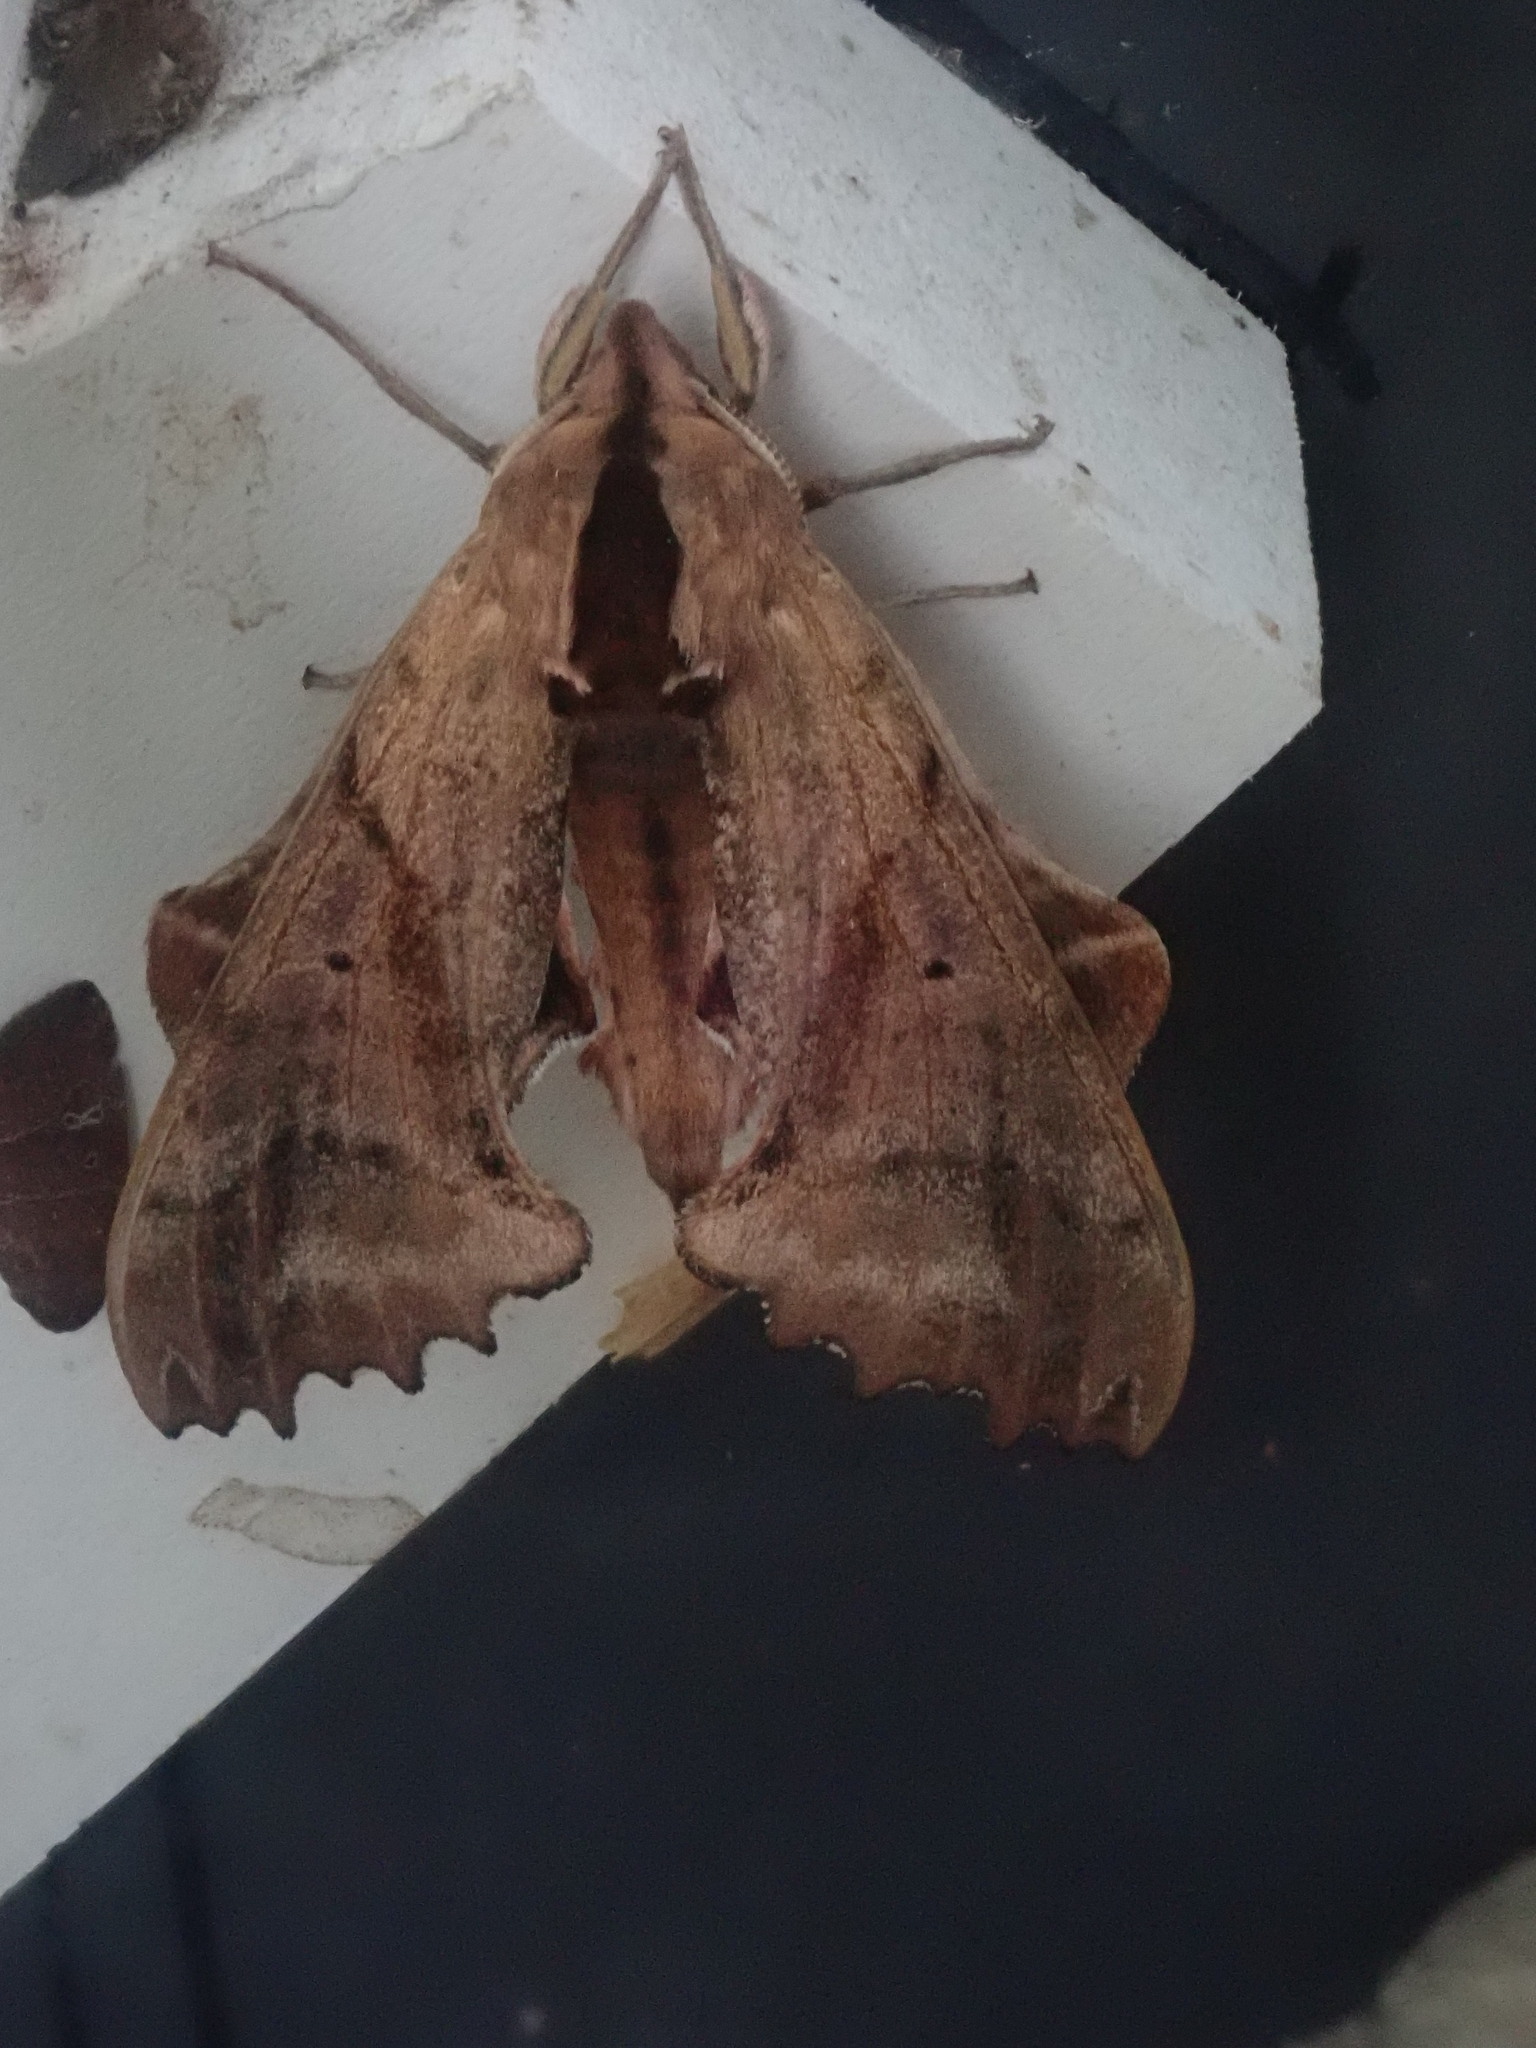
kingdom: Animalia
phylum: Arthropoda
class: Insecta
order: Lepidoptera
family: Sphingidae
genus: Paonias
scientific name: Paonias excaecata
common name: Blind-eyed sphinx
